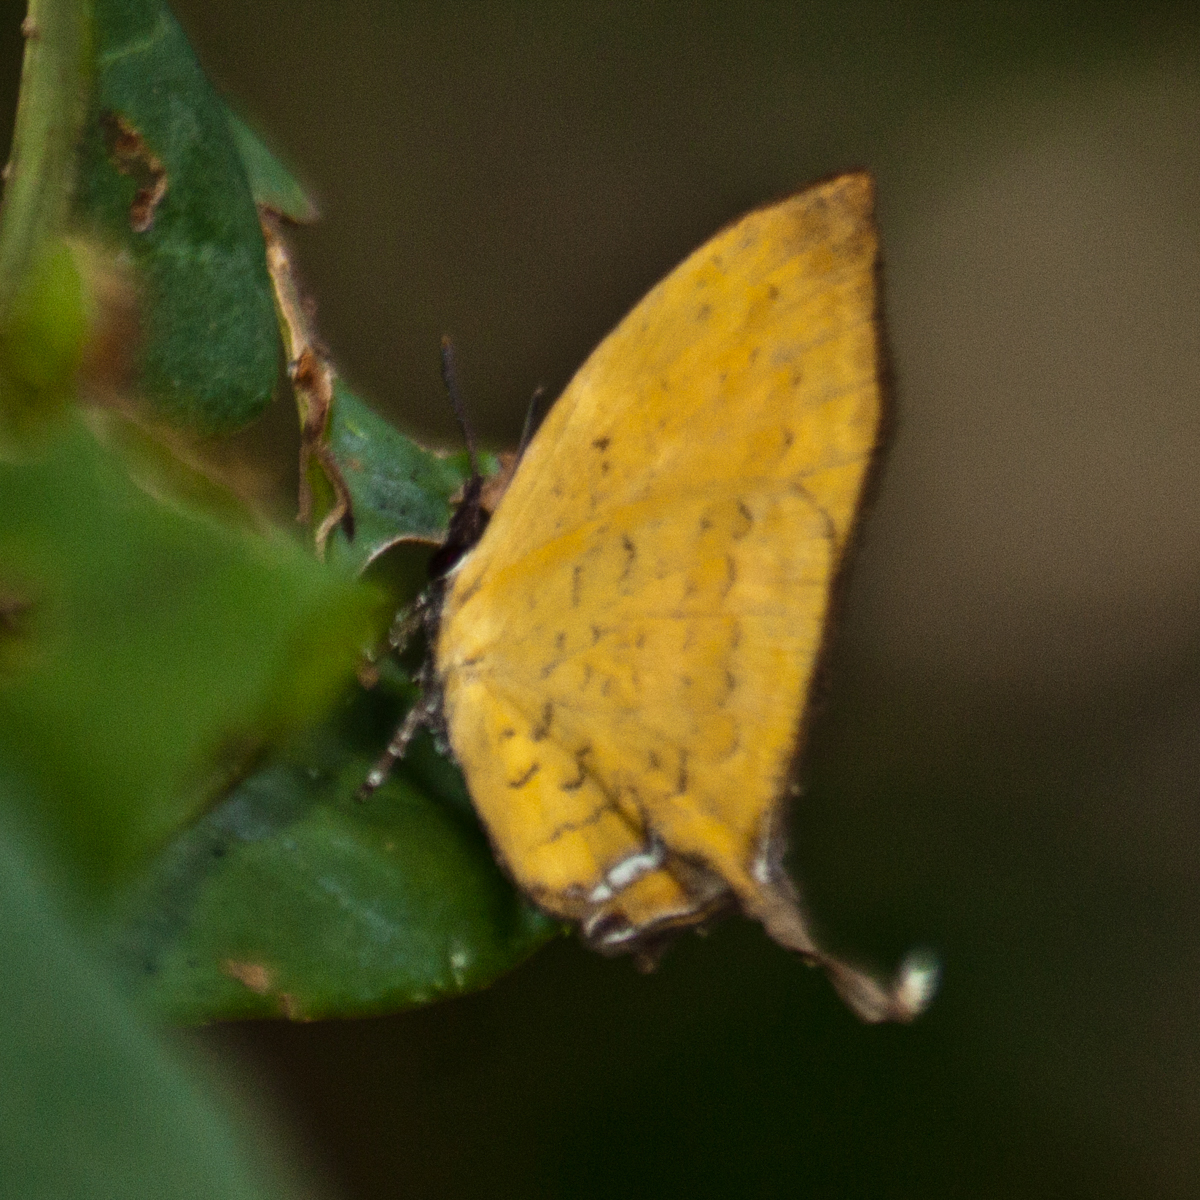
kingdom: Animalia
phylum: Arthropoda
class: Insecta
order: Lepidoptera
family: Lycaenidae
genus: Yasoda
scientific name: Yasoda tripunctata
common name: Branded yamfly
